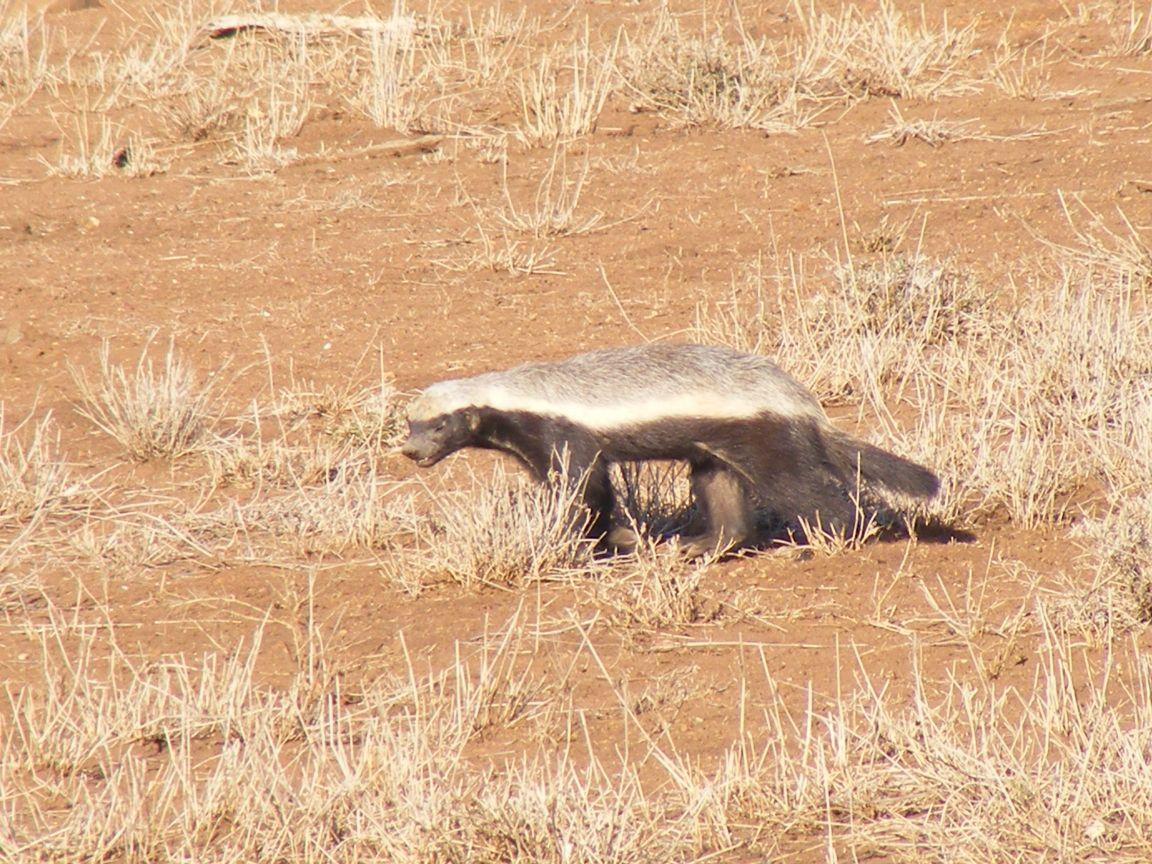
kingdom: Animalia
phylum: Chordata
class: Mammalia
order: Carnivora
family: Mustelidae
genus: Mellivora
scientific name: Mellivora capensis
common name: Honey badger
